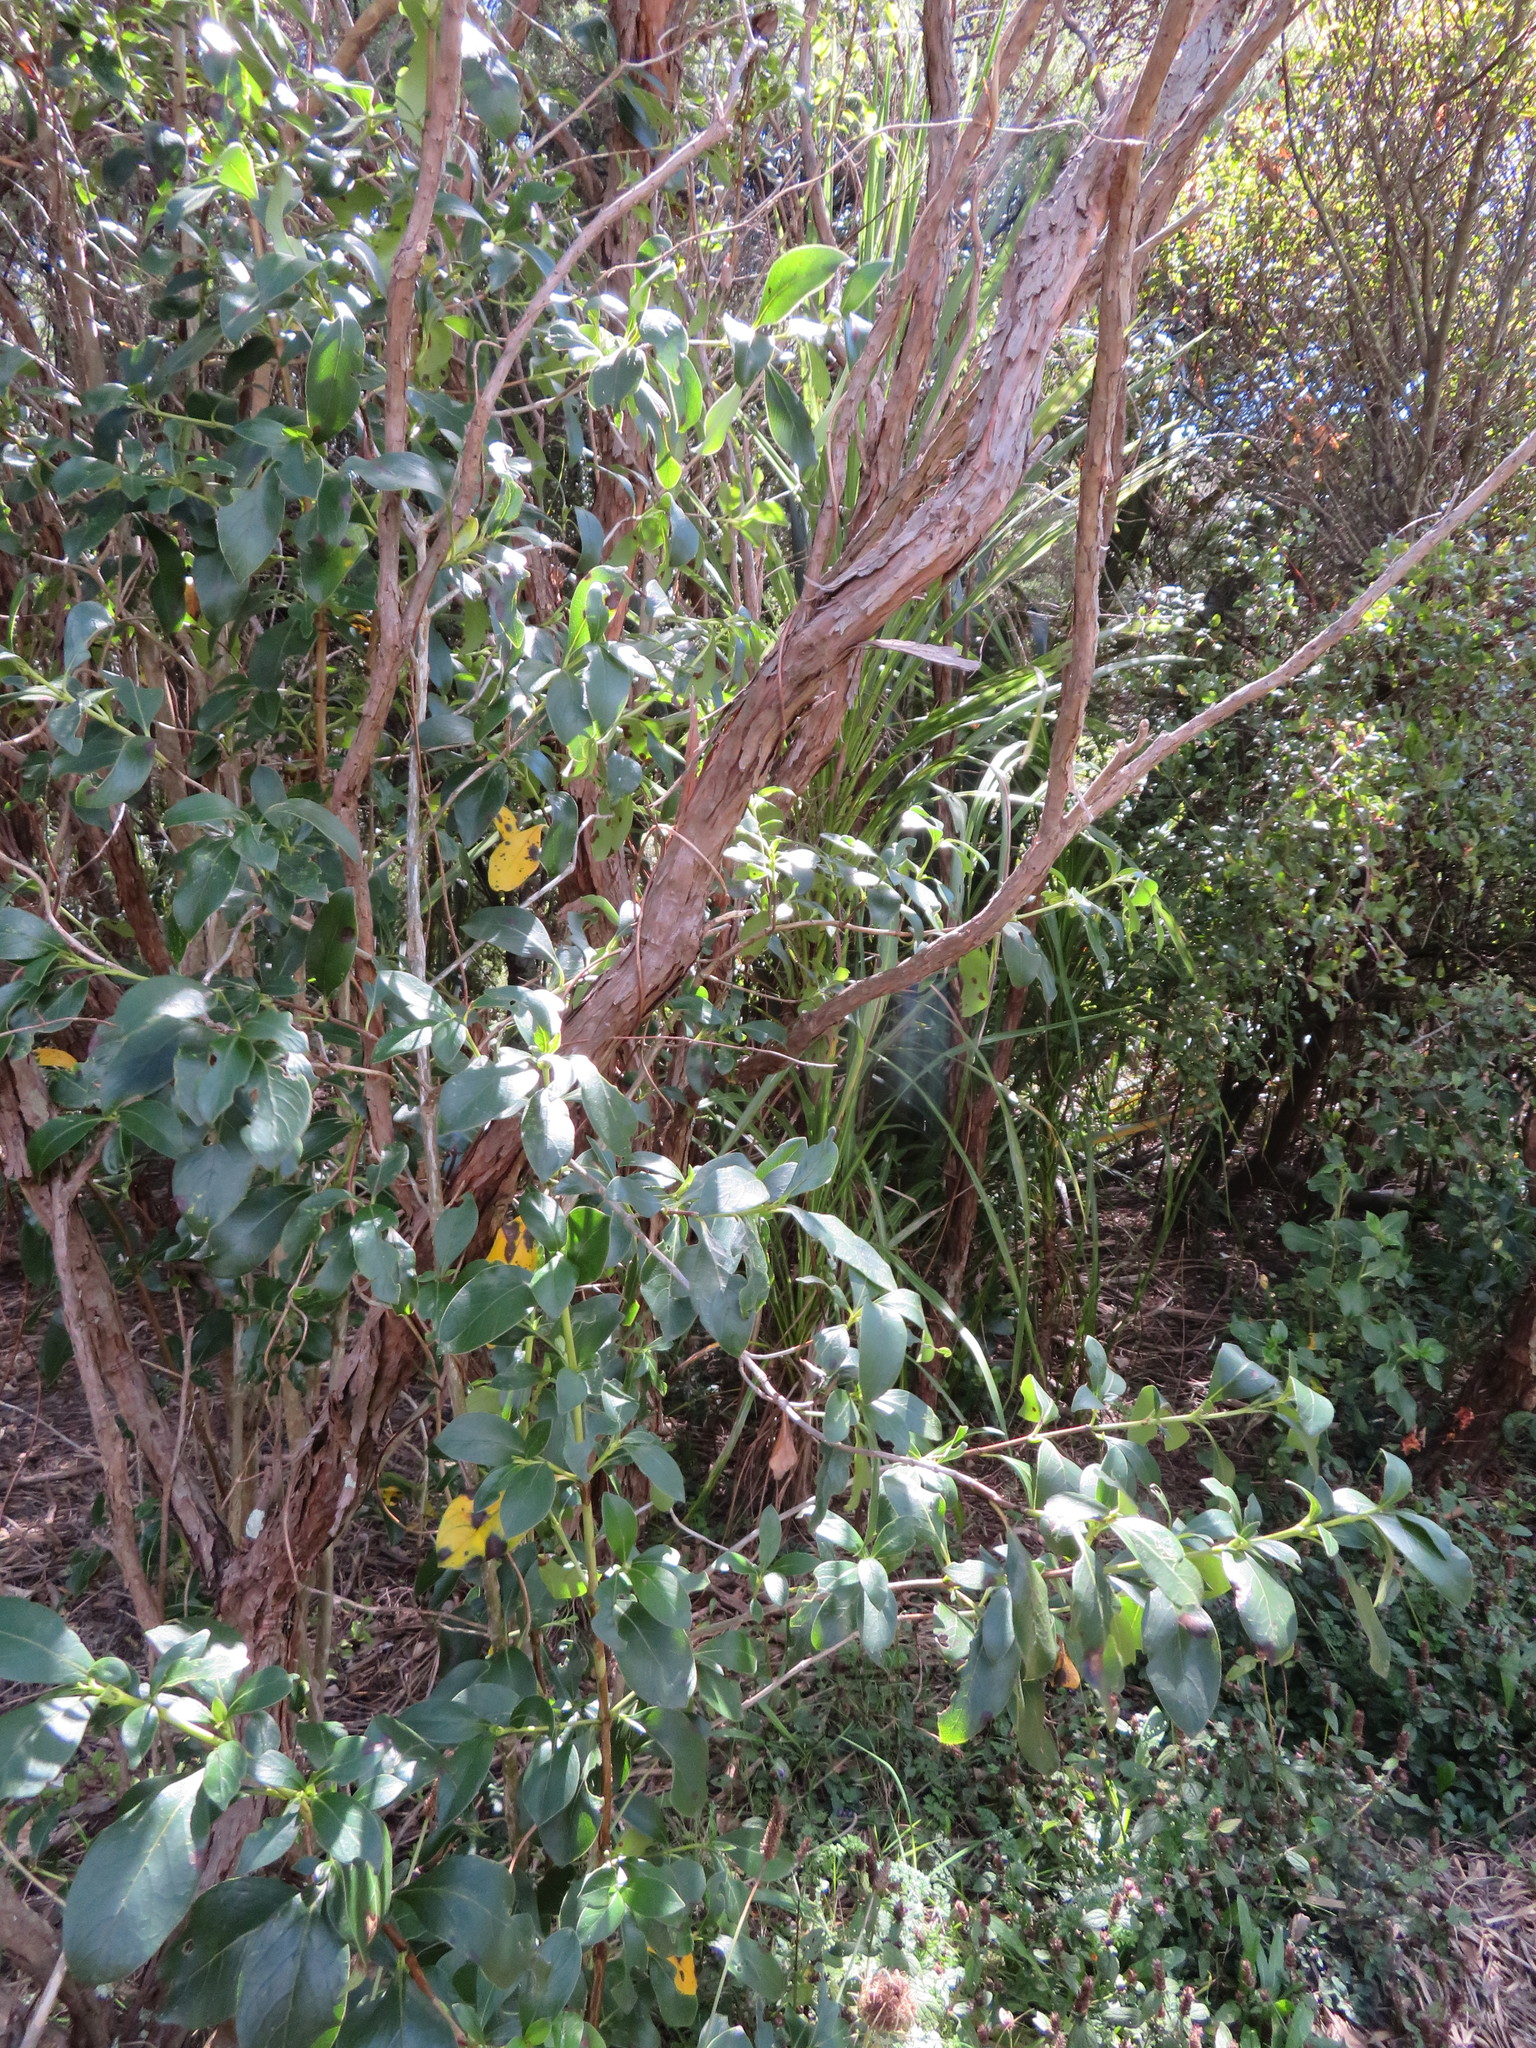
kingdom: Plantae
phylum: Tracheophyta
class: Magnoliopsida
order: Gentianales
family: Rubiaceae
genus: Coprosma
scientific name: Coprosma robusta
